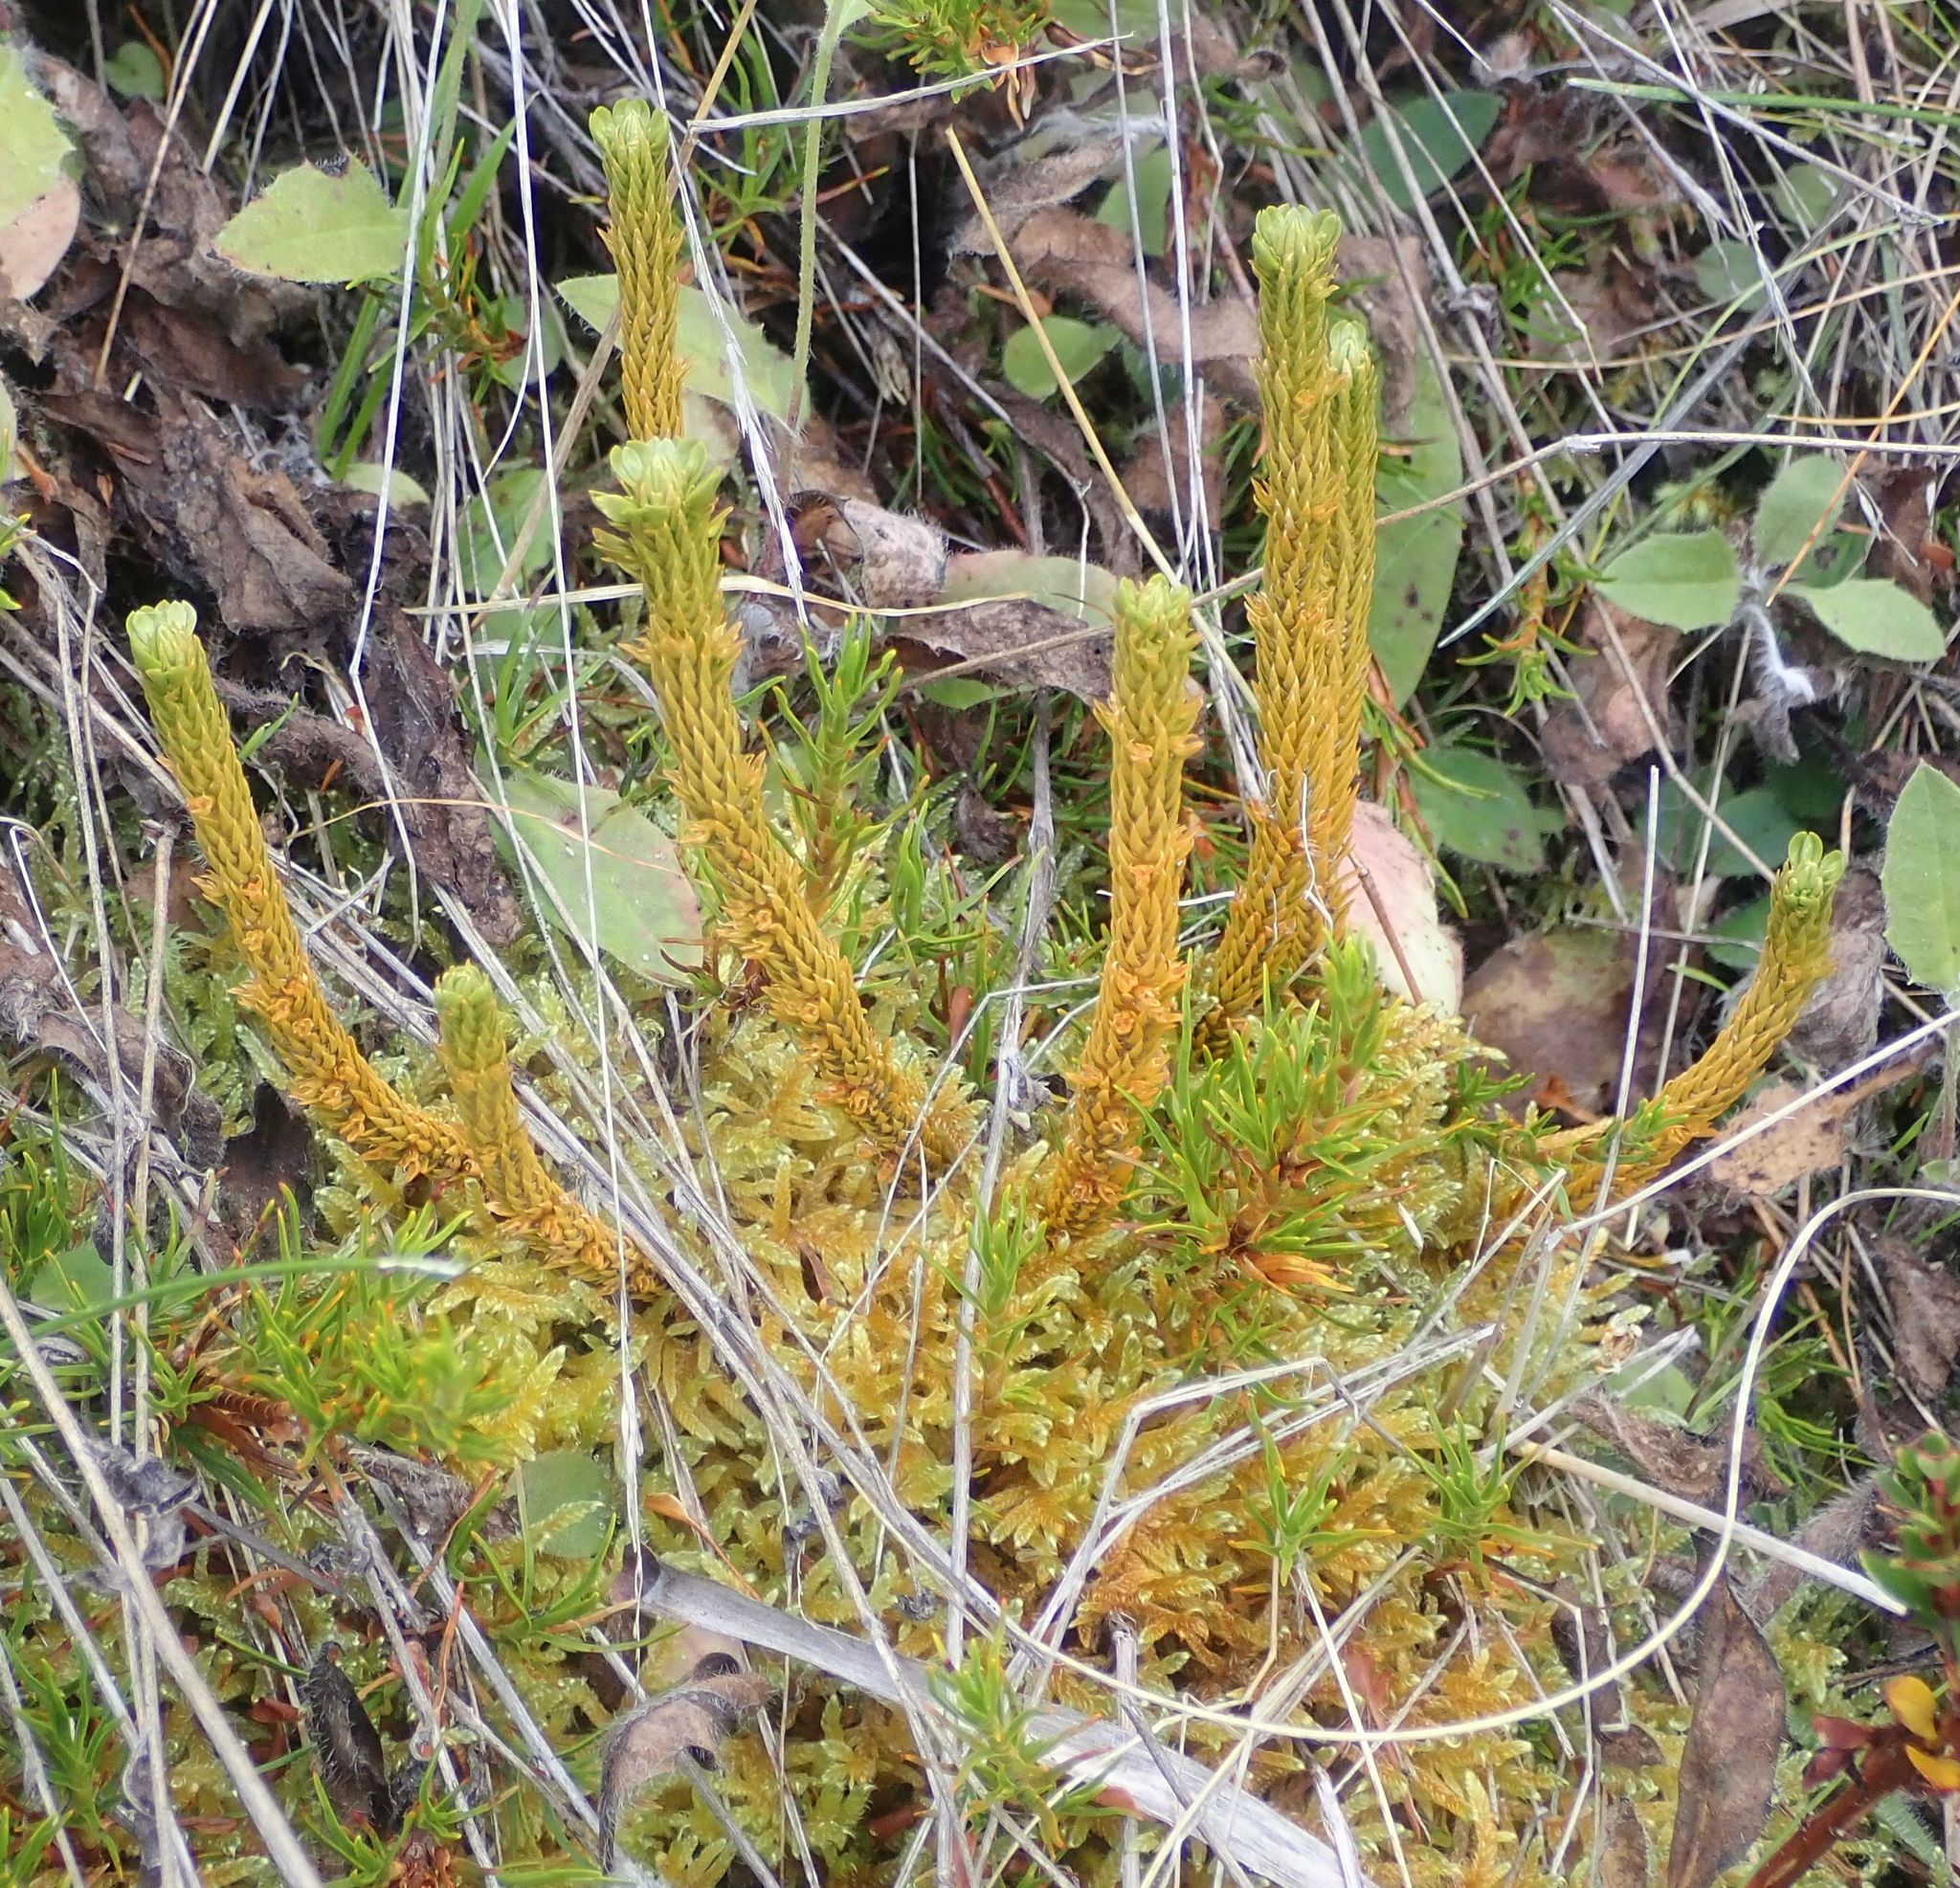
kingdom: Plantae
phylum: Tracheophyta
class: Lycopodiopsida
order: Lycopodiales
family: Lycopodiaceae
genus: Huperzia
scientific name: Huperzia australiana
